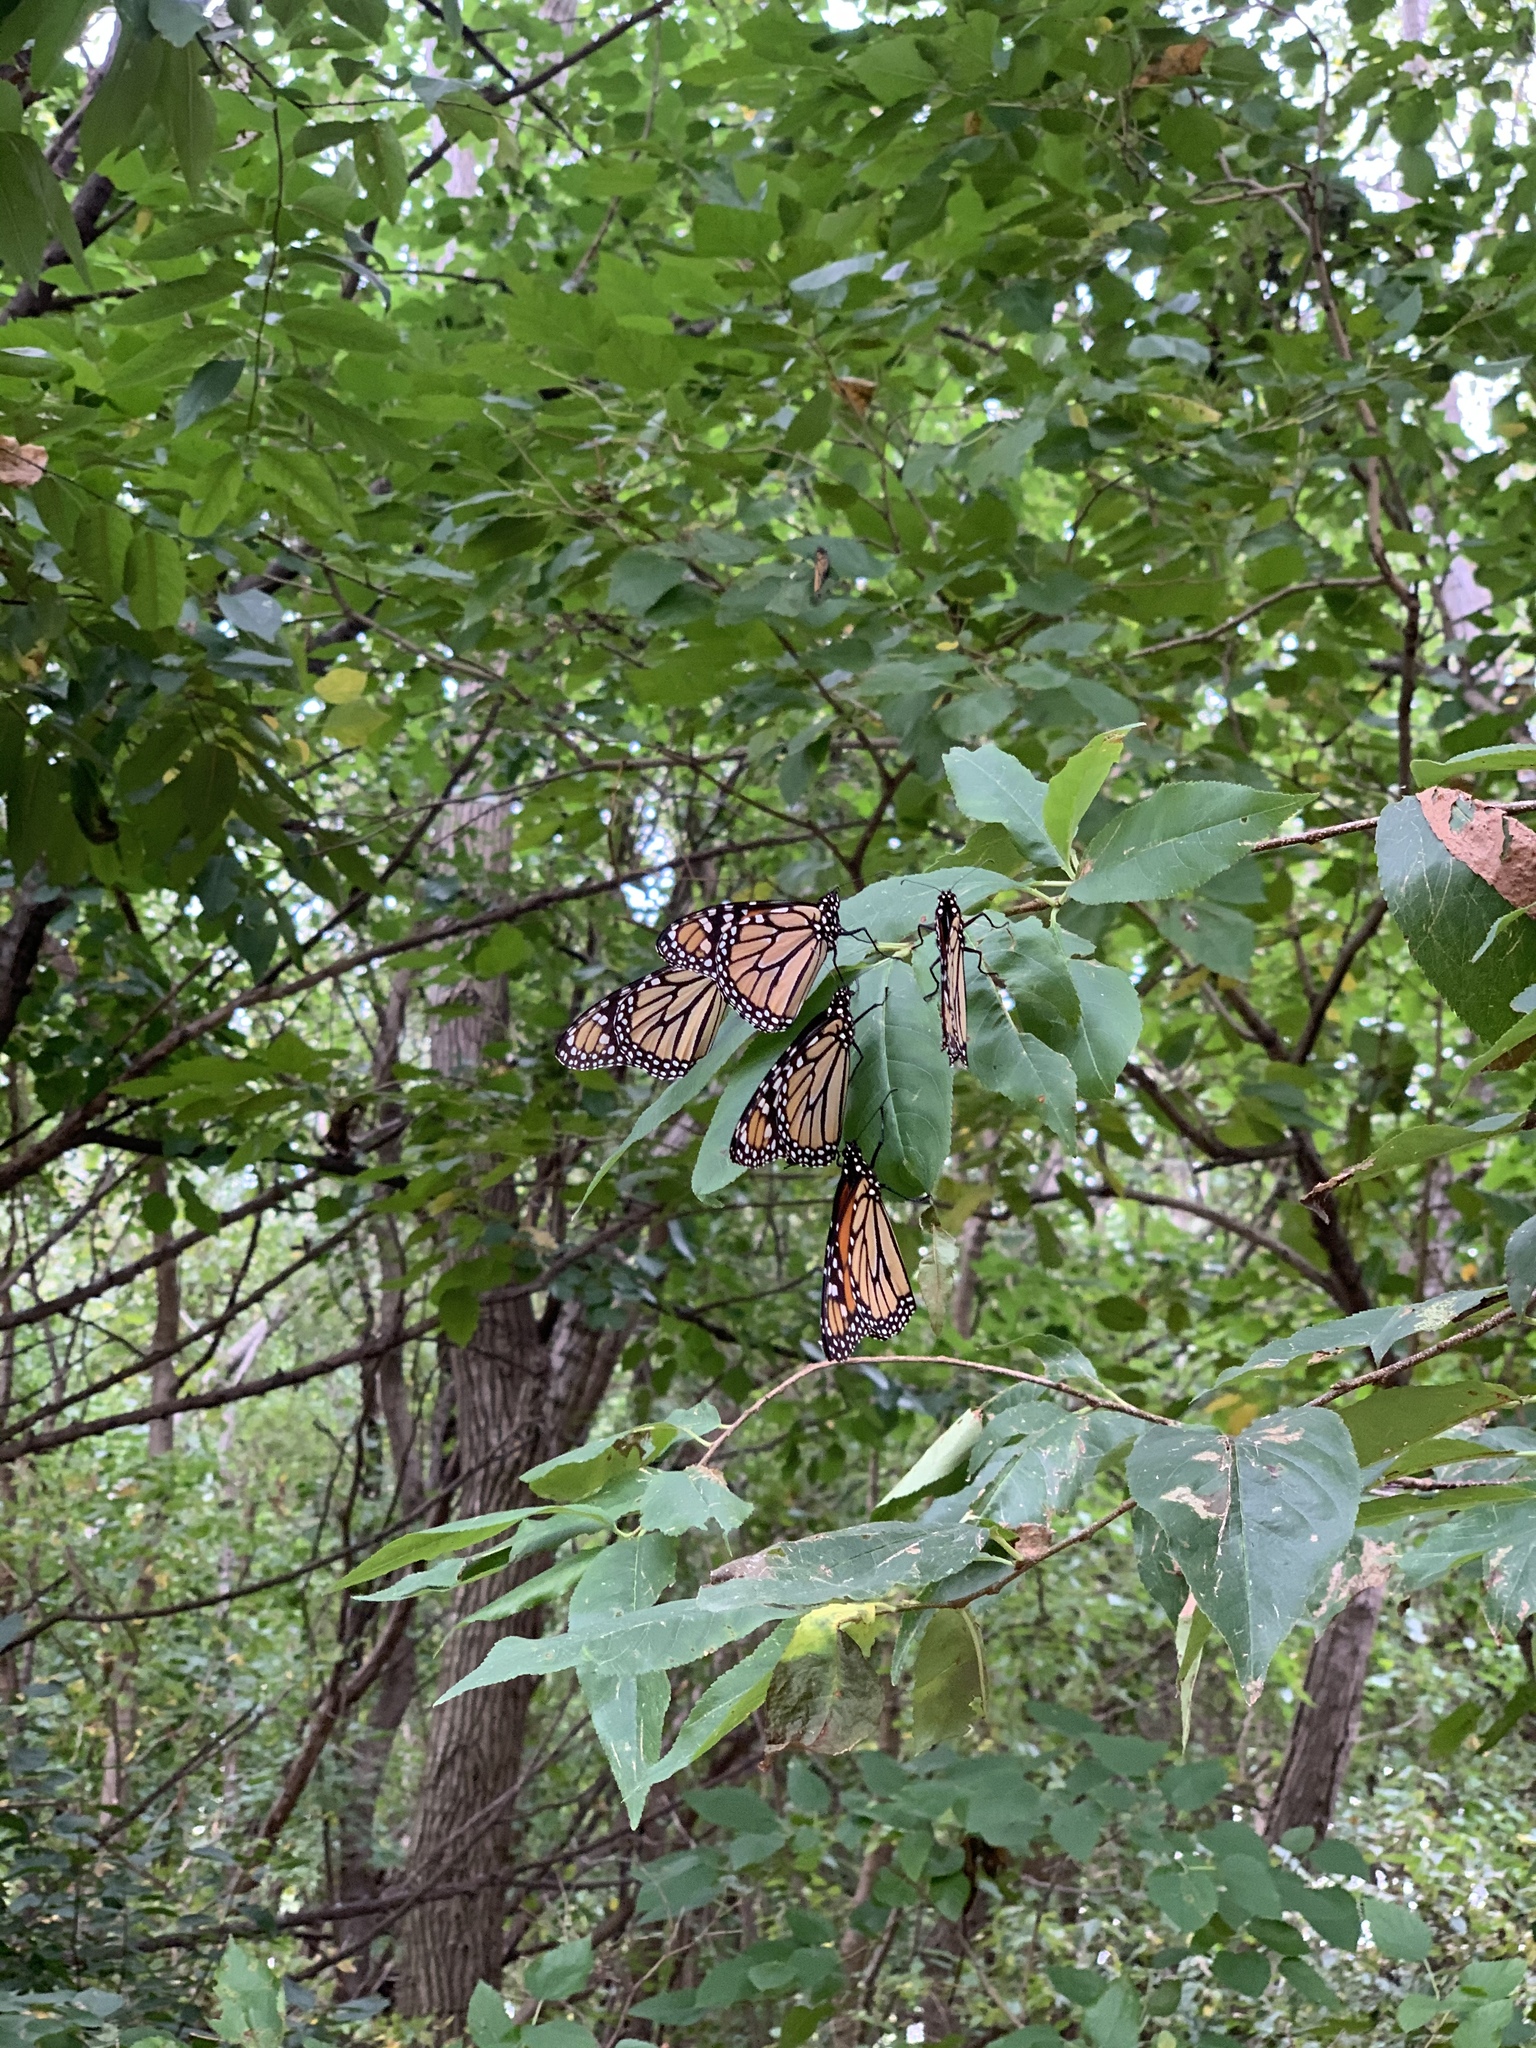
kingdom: Animalia
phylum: Arthropoda
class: Insecta
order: Lepidoptera
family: Nymphalidae
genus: Danaus
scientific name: Danaus plexippus
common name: Monarch
